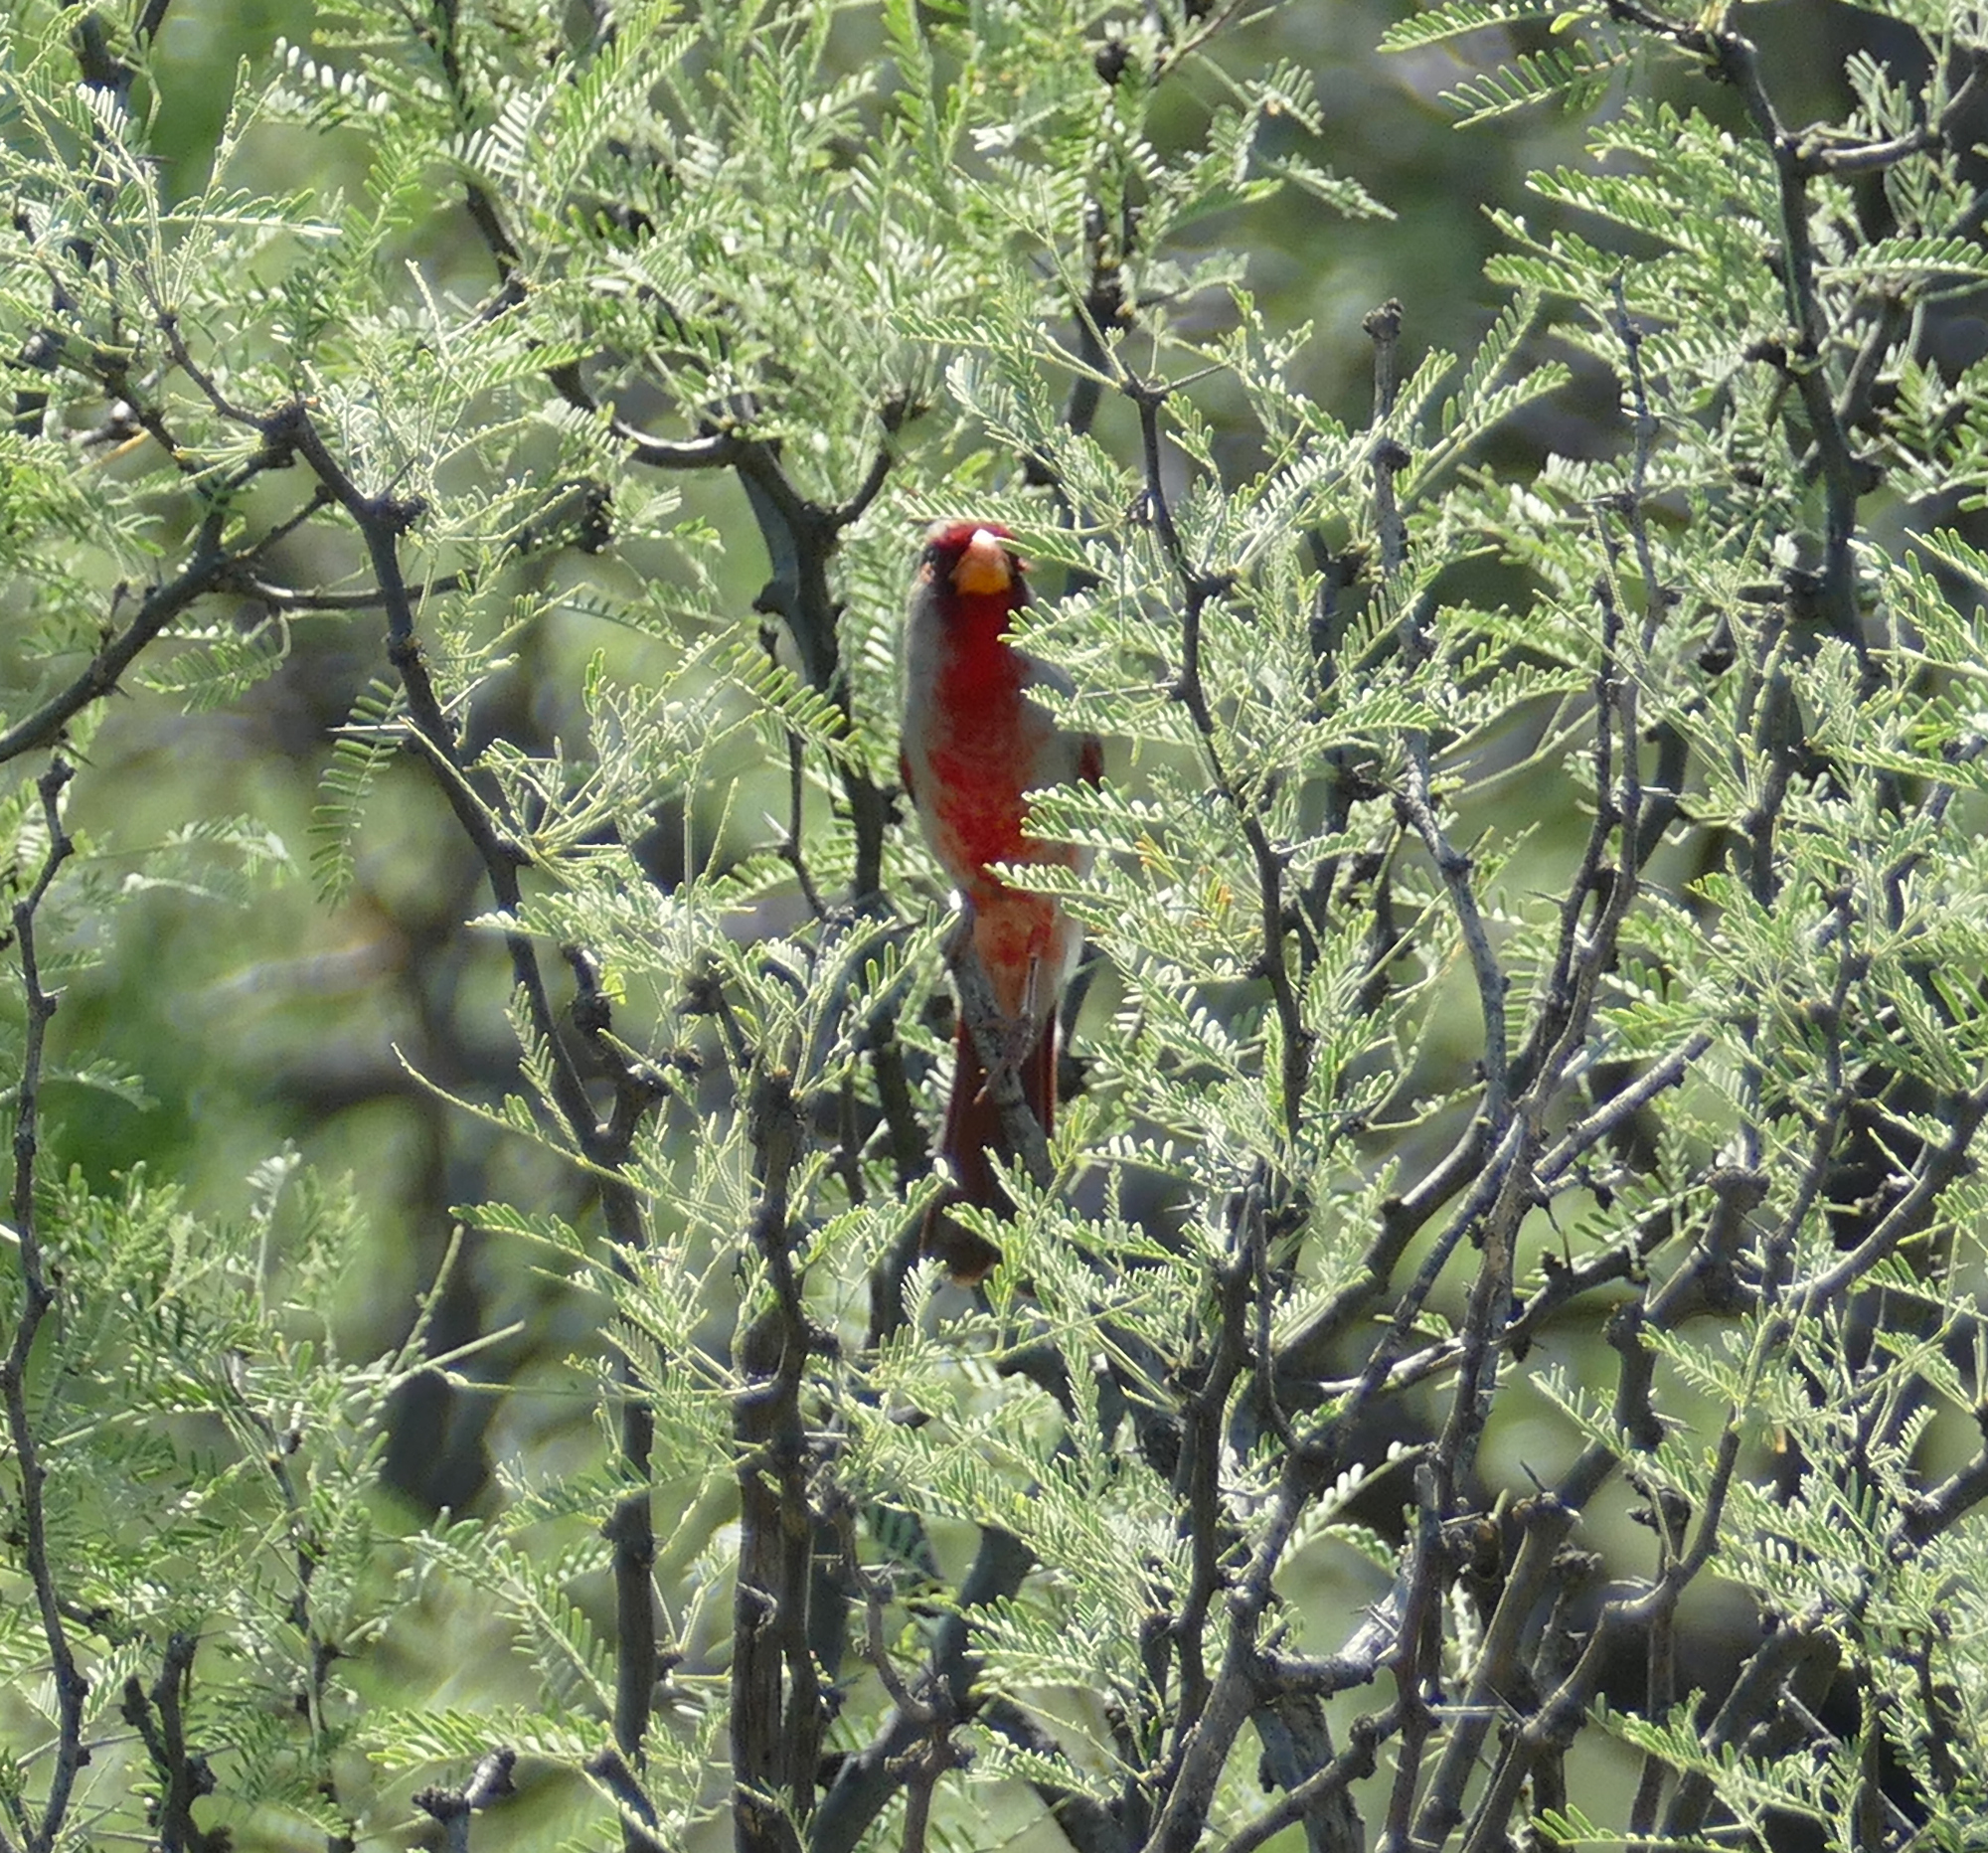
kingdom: Animalia
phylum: Chordata
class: Aves
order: Passeriformes
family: Cardinalidae
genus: Cardinalis
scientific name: Cardinalis sinuatus
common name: Pyrrhuloxia
